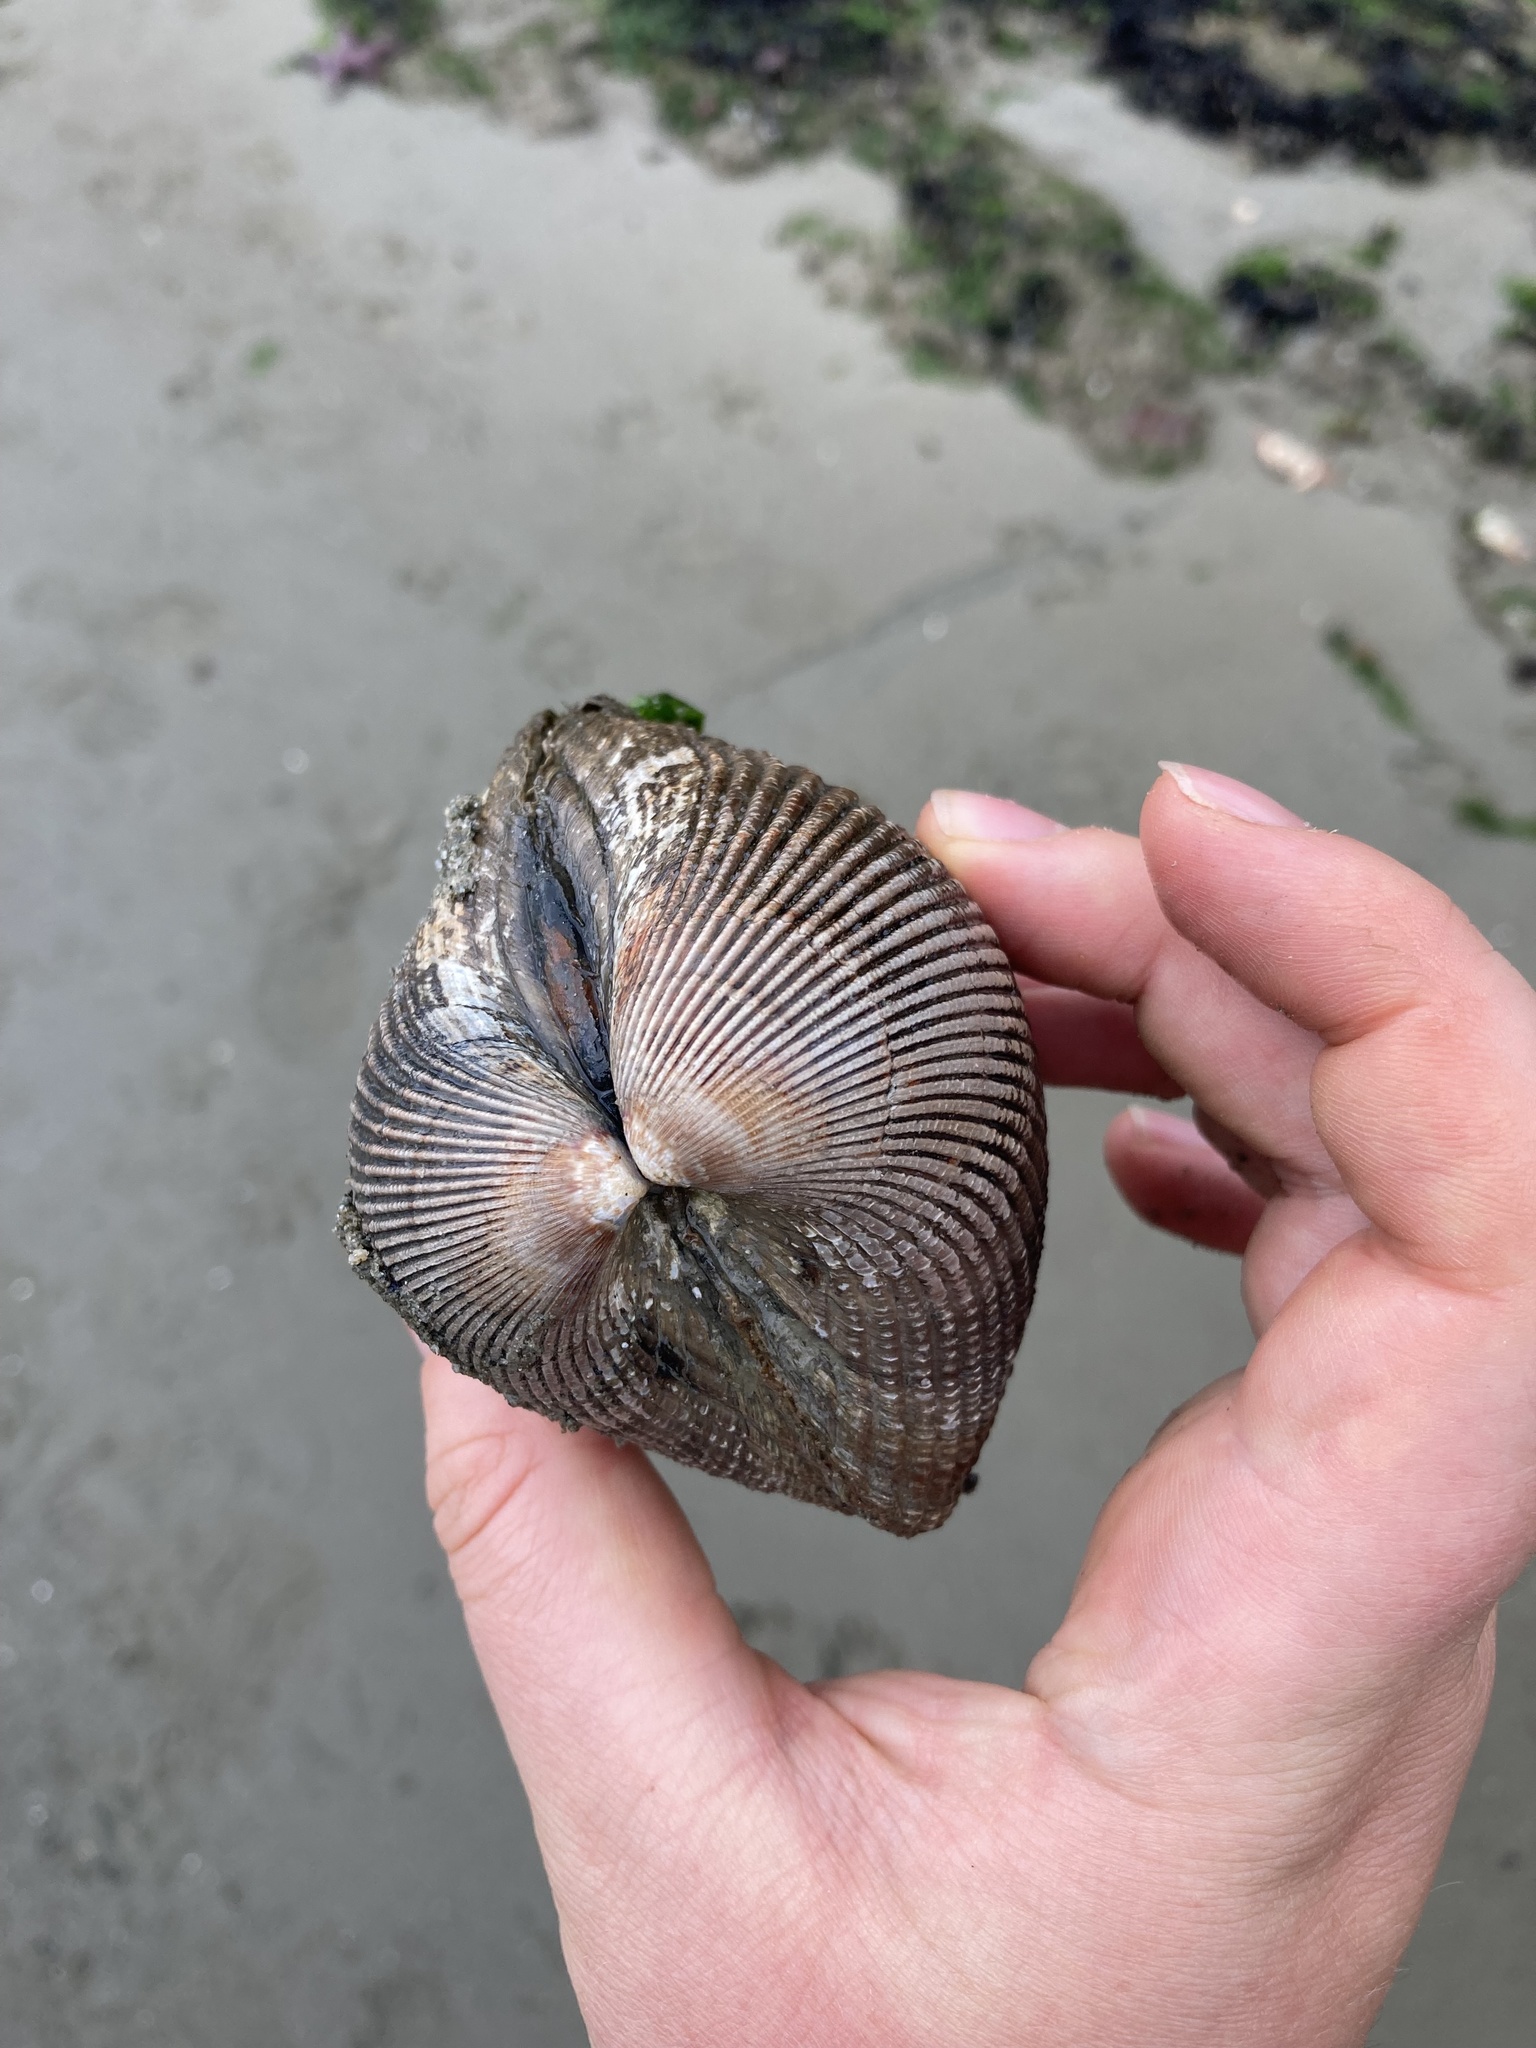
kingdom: Animalia
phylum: Mollusca
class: Bivalvia
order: Cardiida
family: Cardiidae
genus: Clinocardium
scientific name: Clinocardium nuttallii
